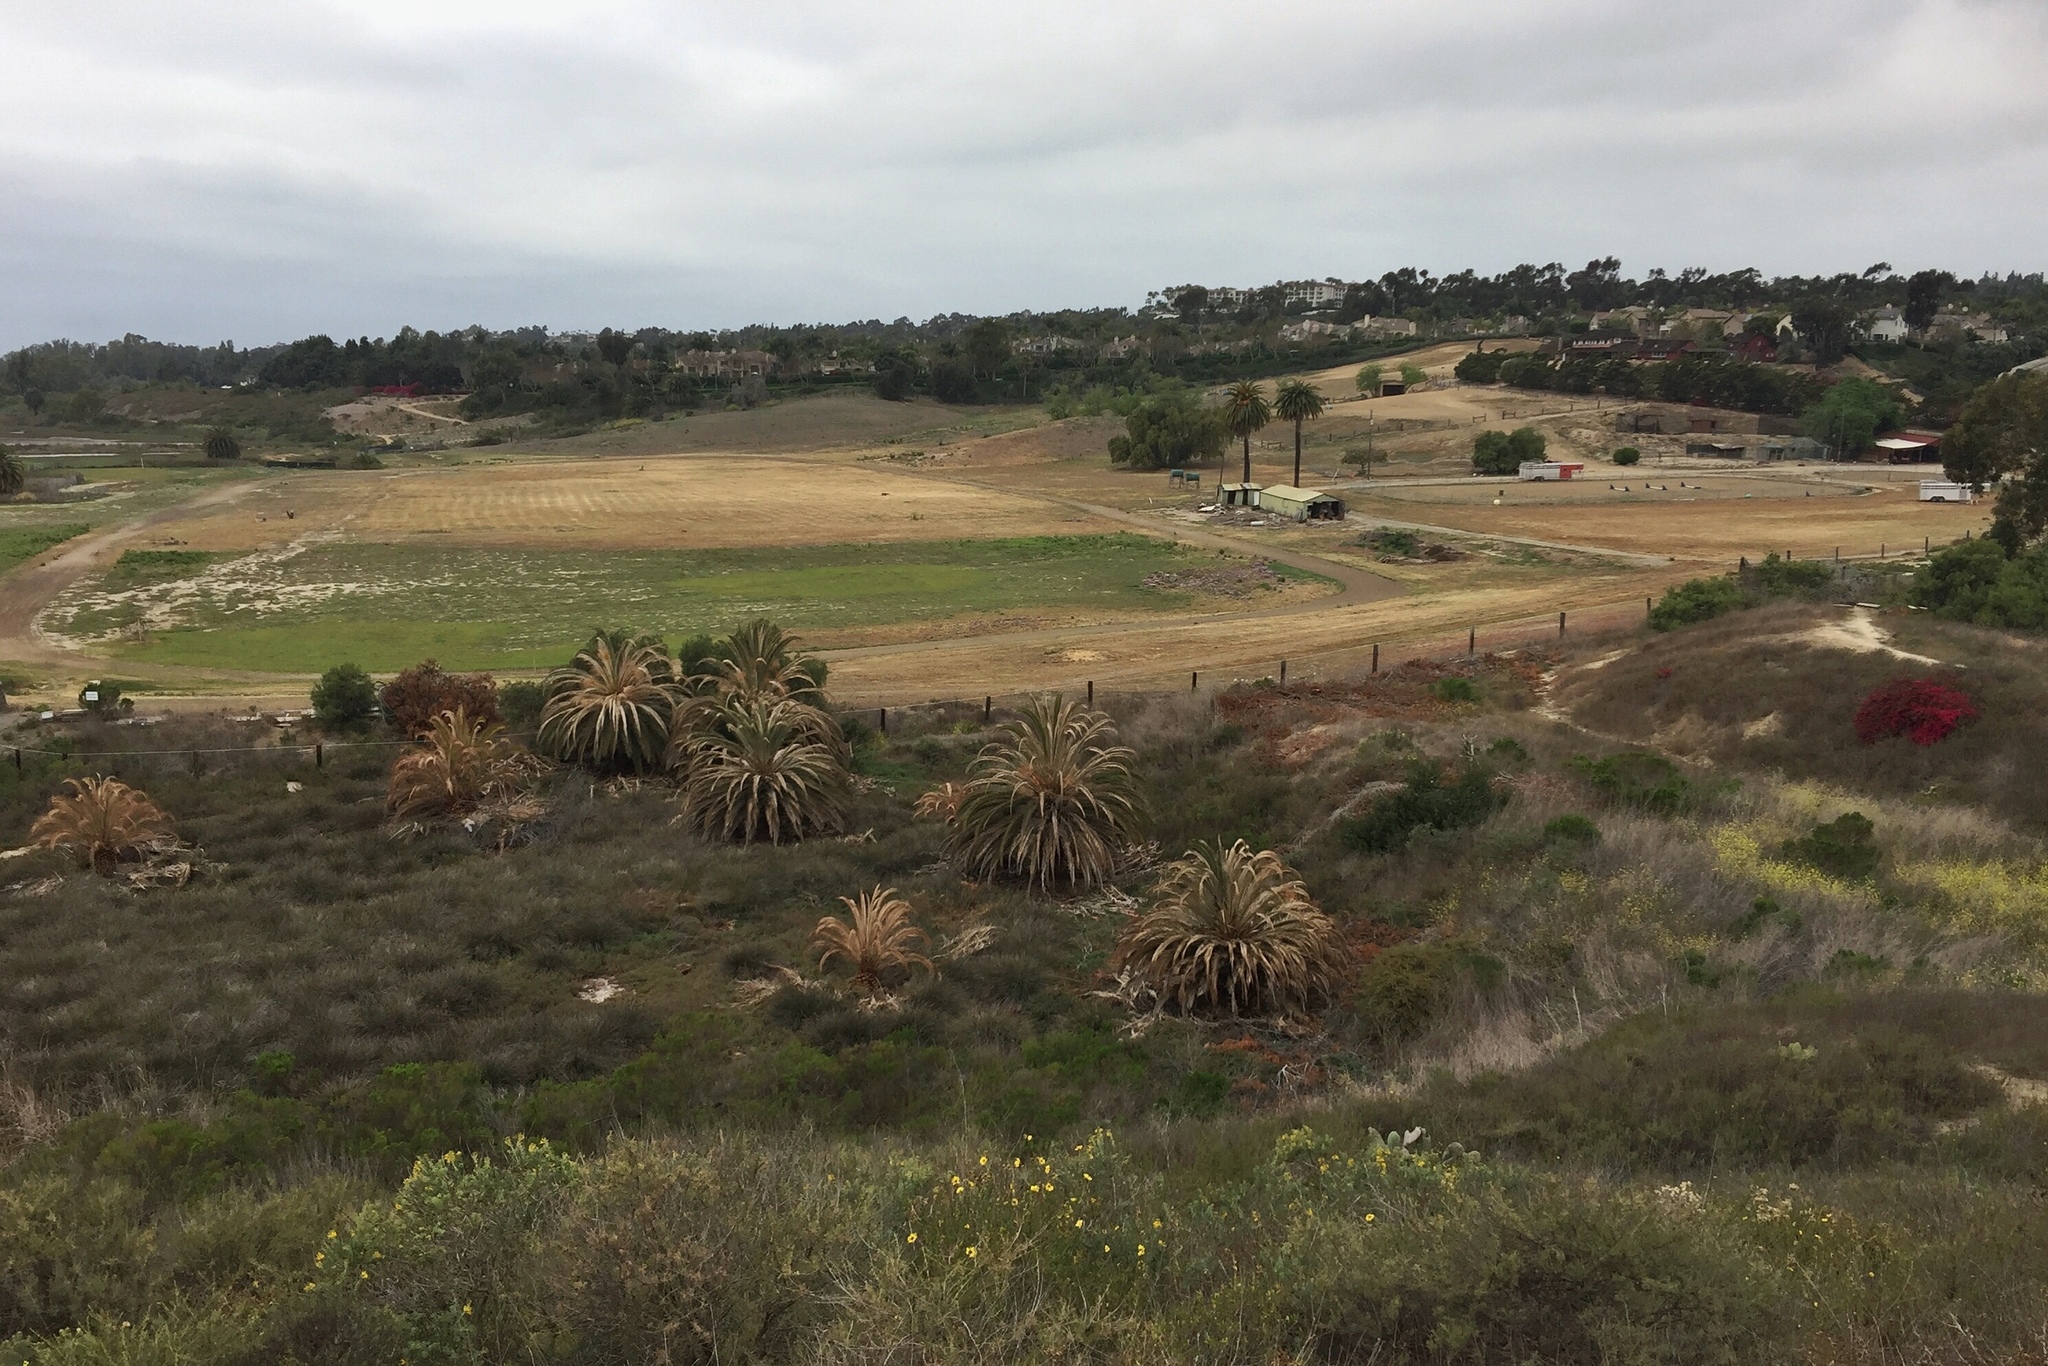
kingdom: Animalia
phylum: Chordata
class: Mammalia
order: Rodentia
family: Sciuridae
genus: Otospermophilus
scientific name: Otospermophilus beecheyi
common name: California ground squirrel
